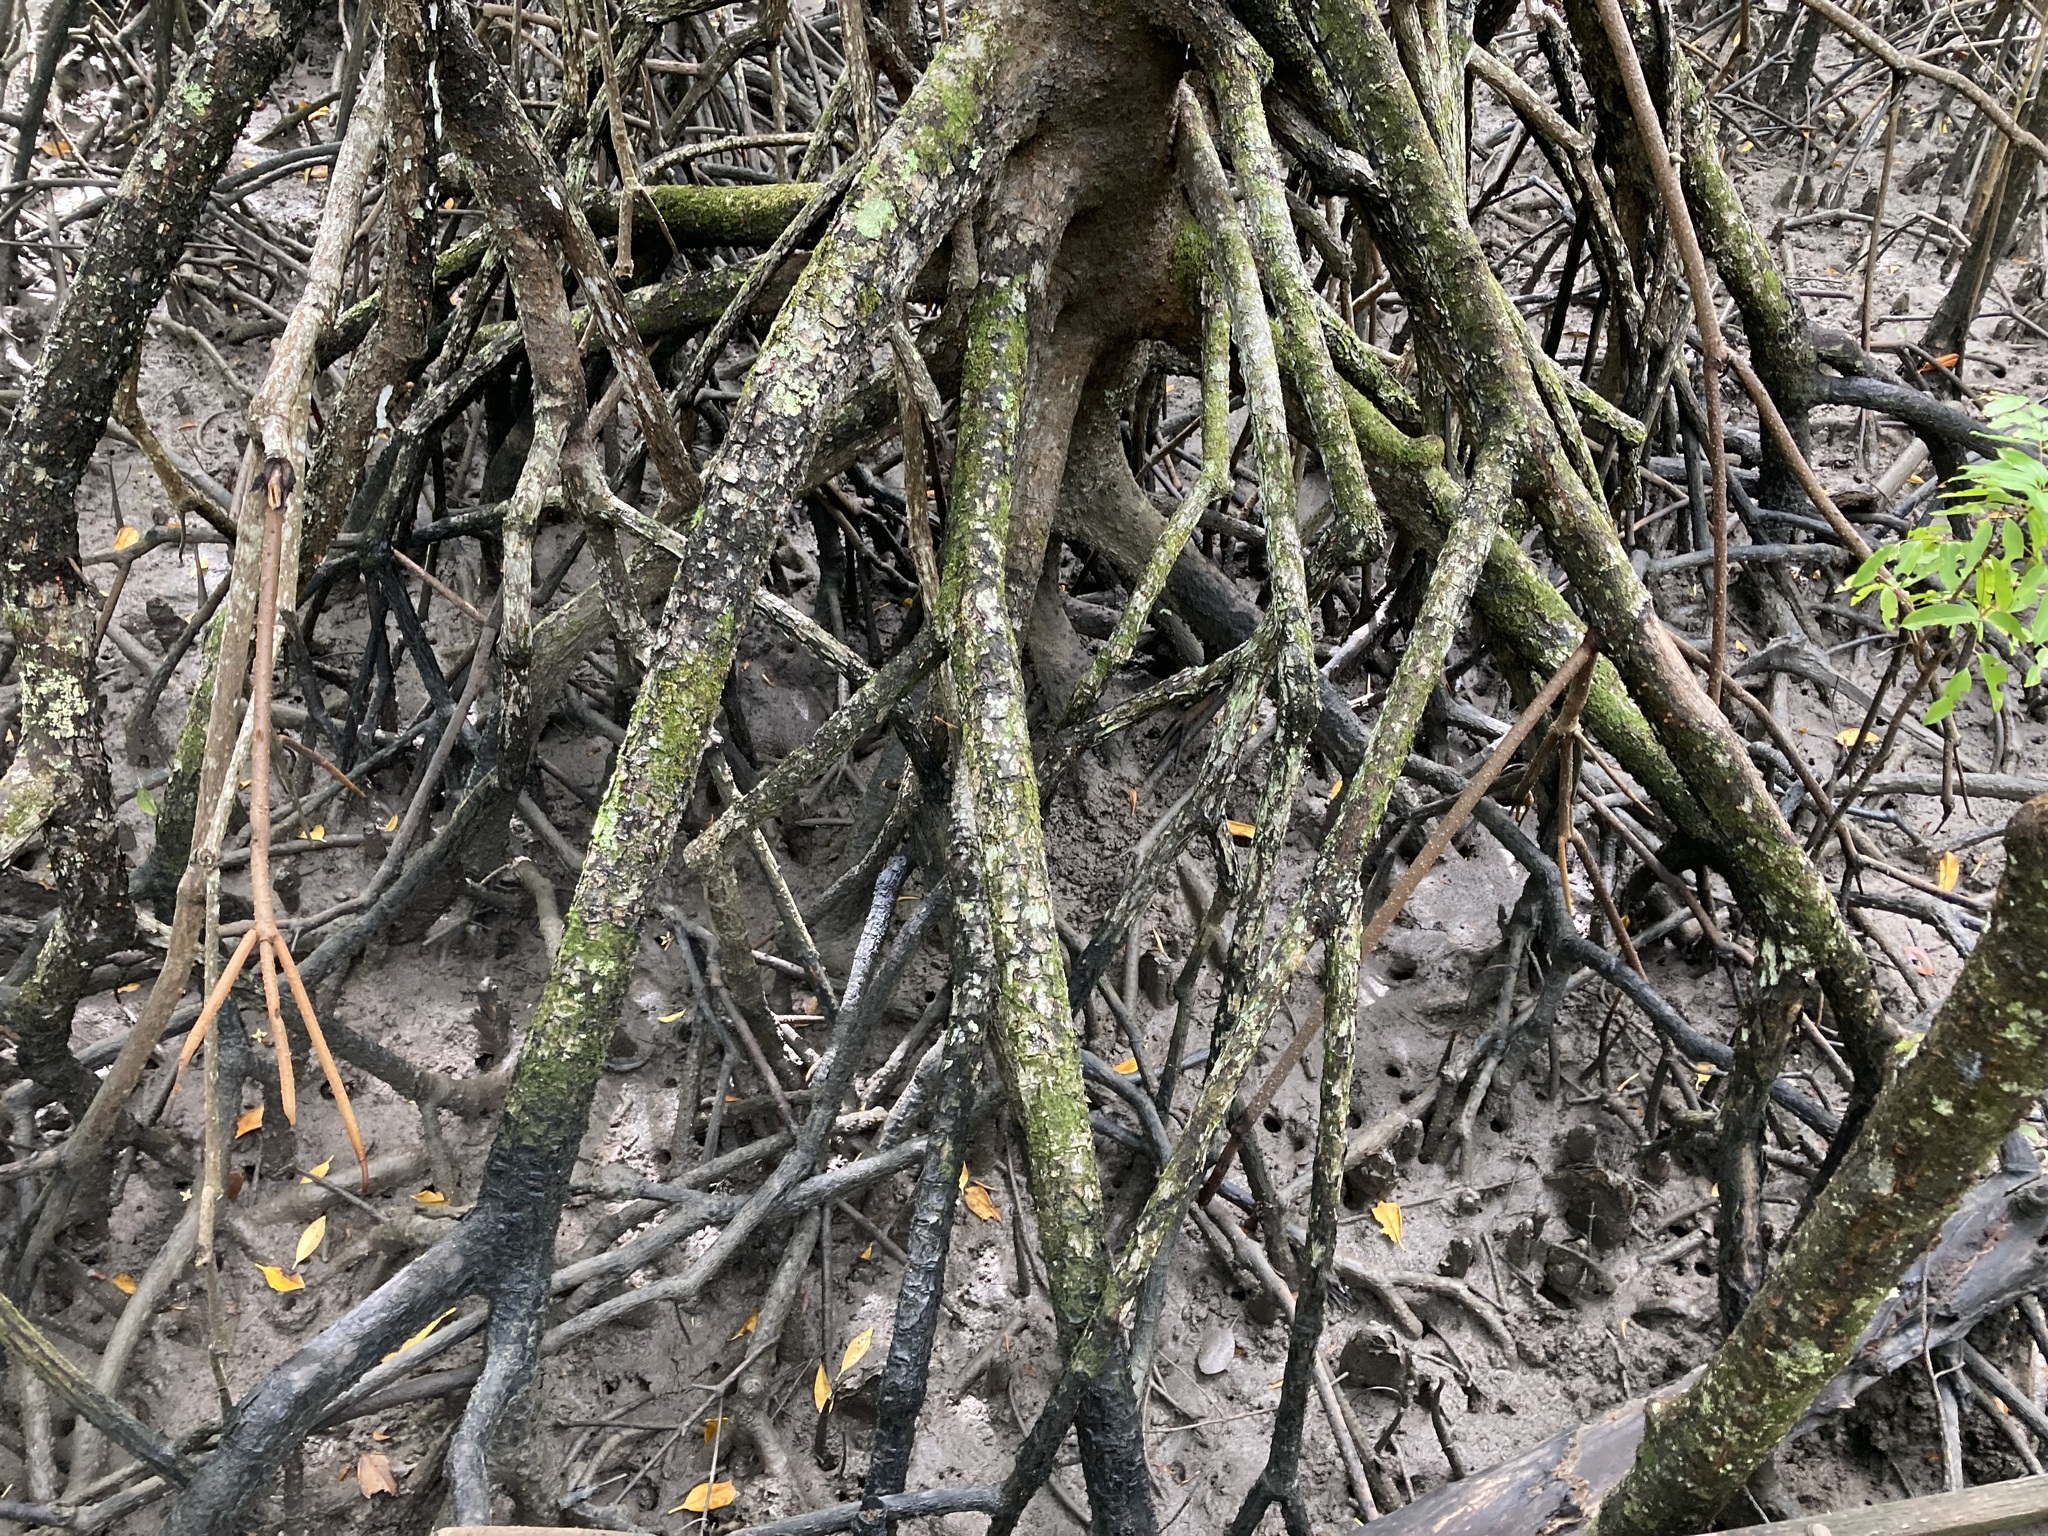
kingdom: Plantae
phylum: Tracheophyta
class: Magnoliopsida
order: Malpighiales
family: Rhizophoraceae
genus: Rhizophora
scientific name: Rhizophora stylosa
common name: Red mangrove
